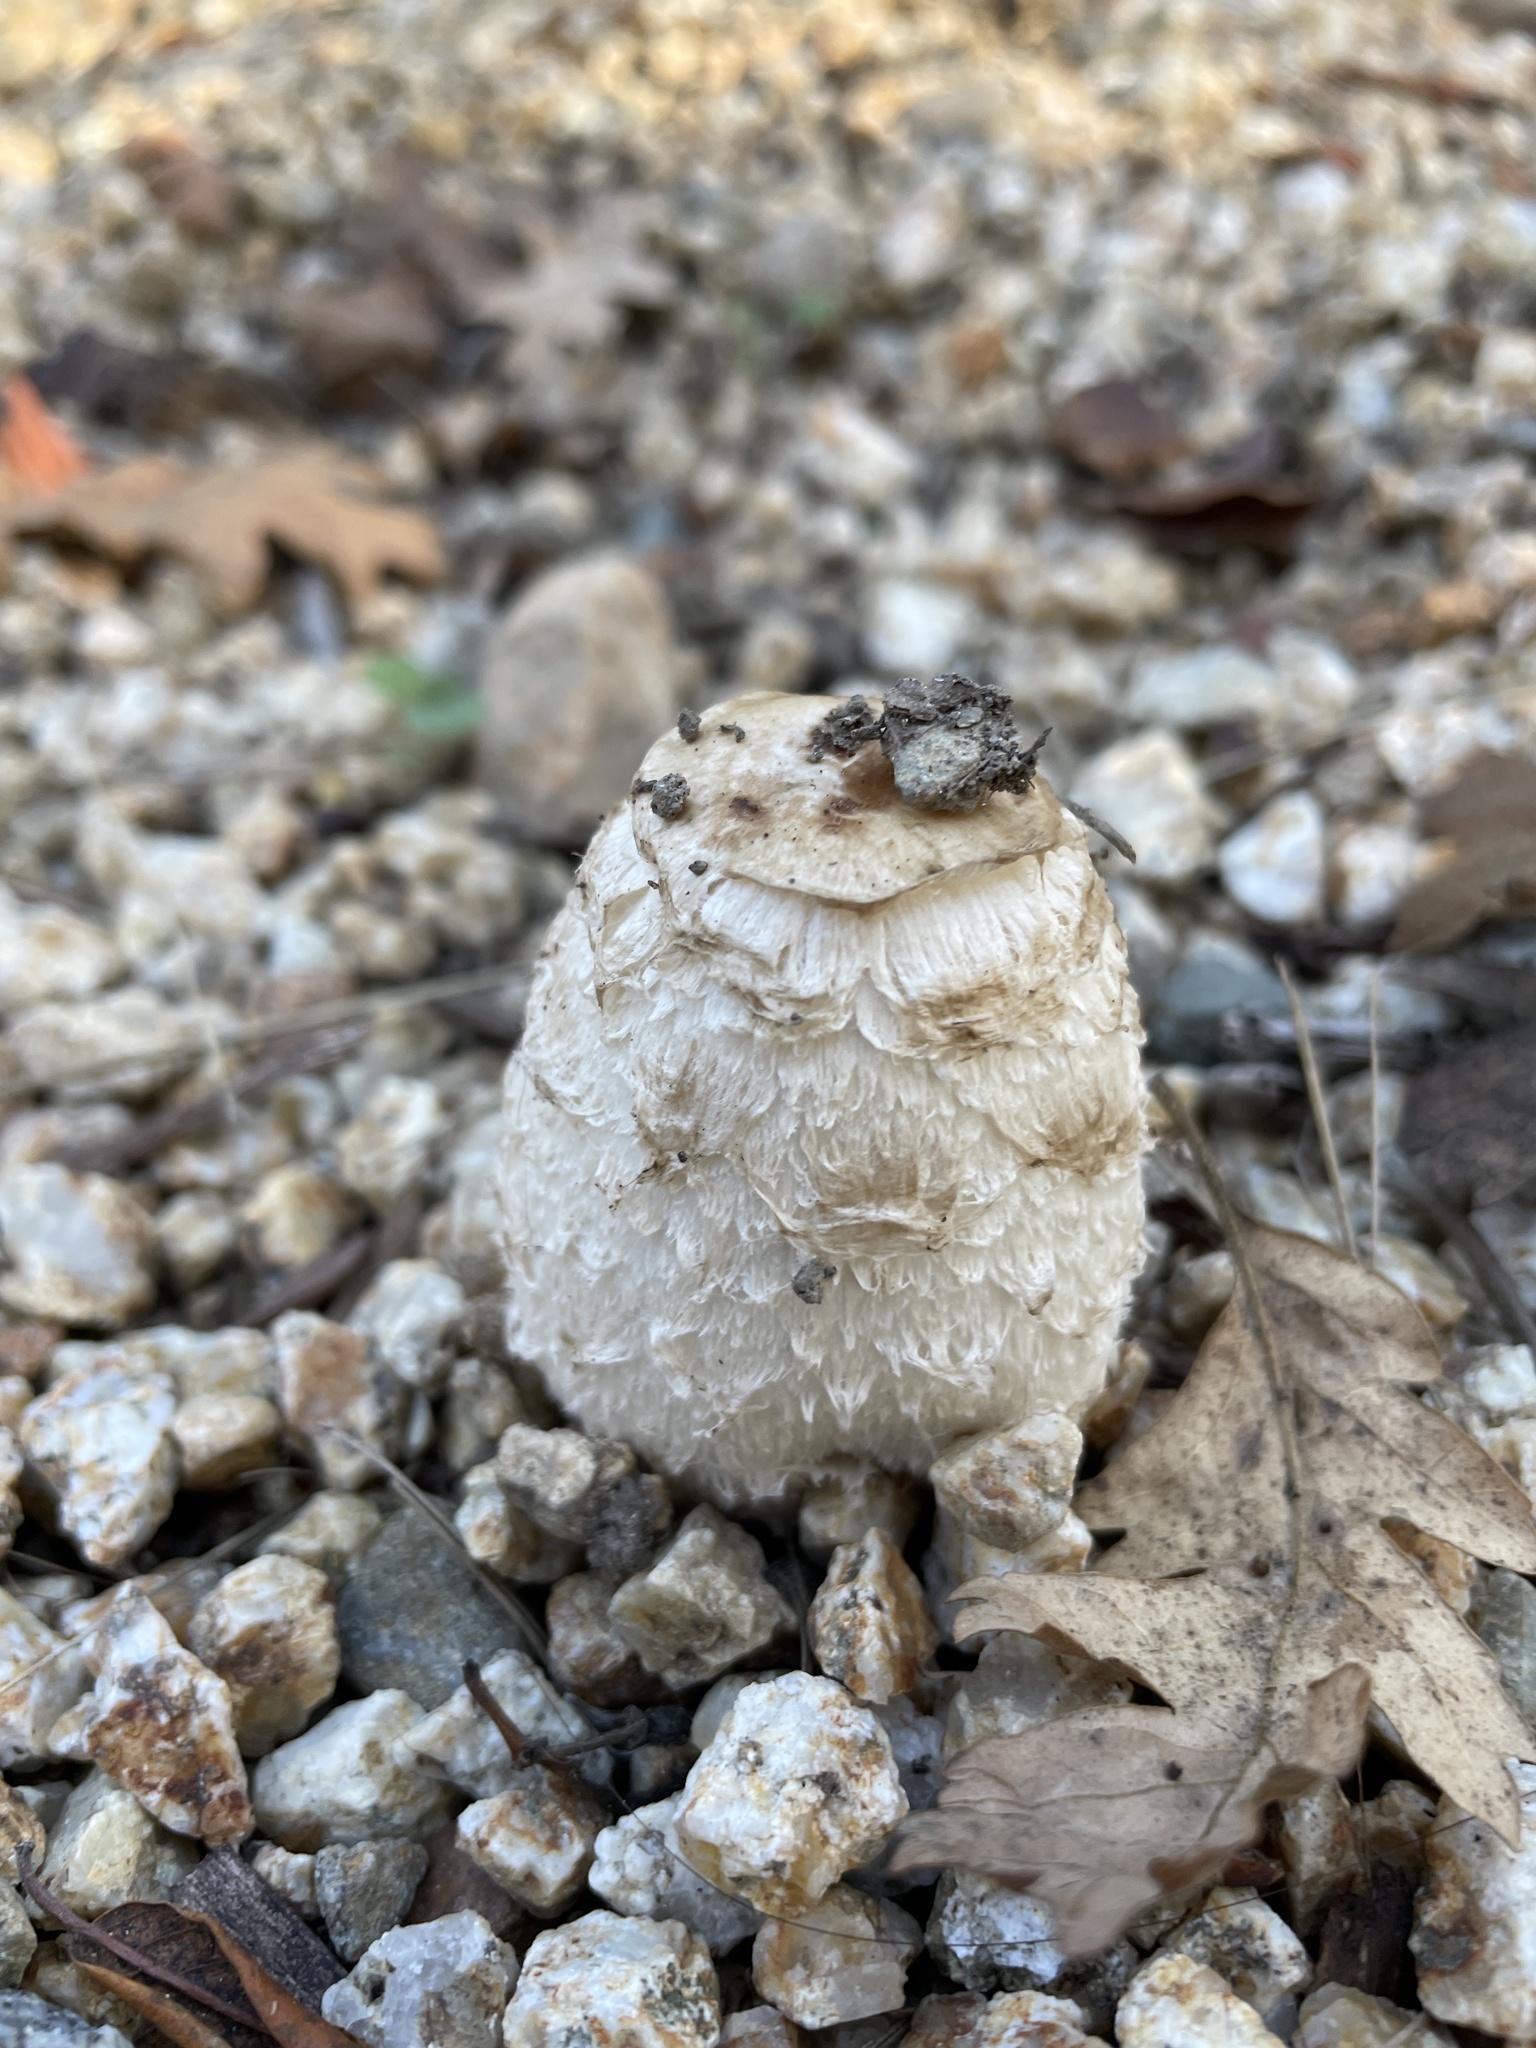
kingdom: Fungi
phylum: Basidiomycota
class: Agaricomycetes
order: Agaricales
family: Agaricaceae
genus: Coprinus
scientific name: Coprinus comatus
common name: Lawyer's wig
